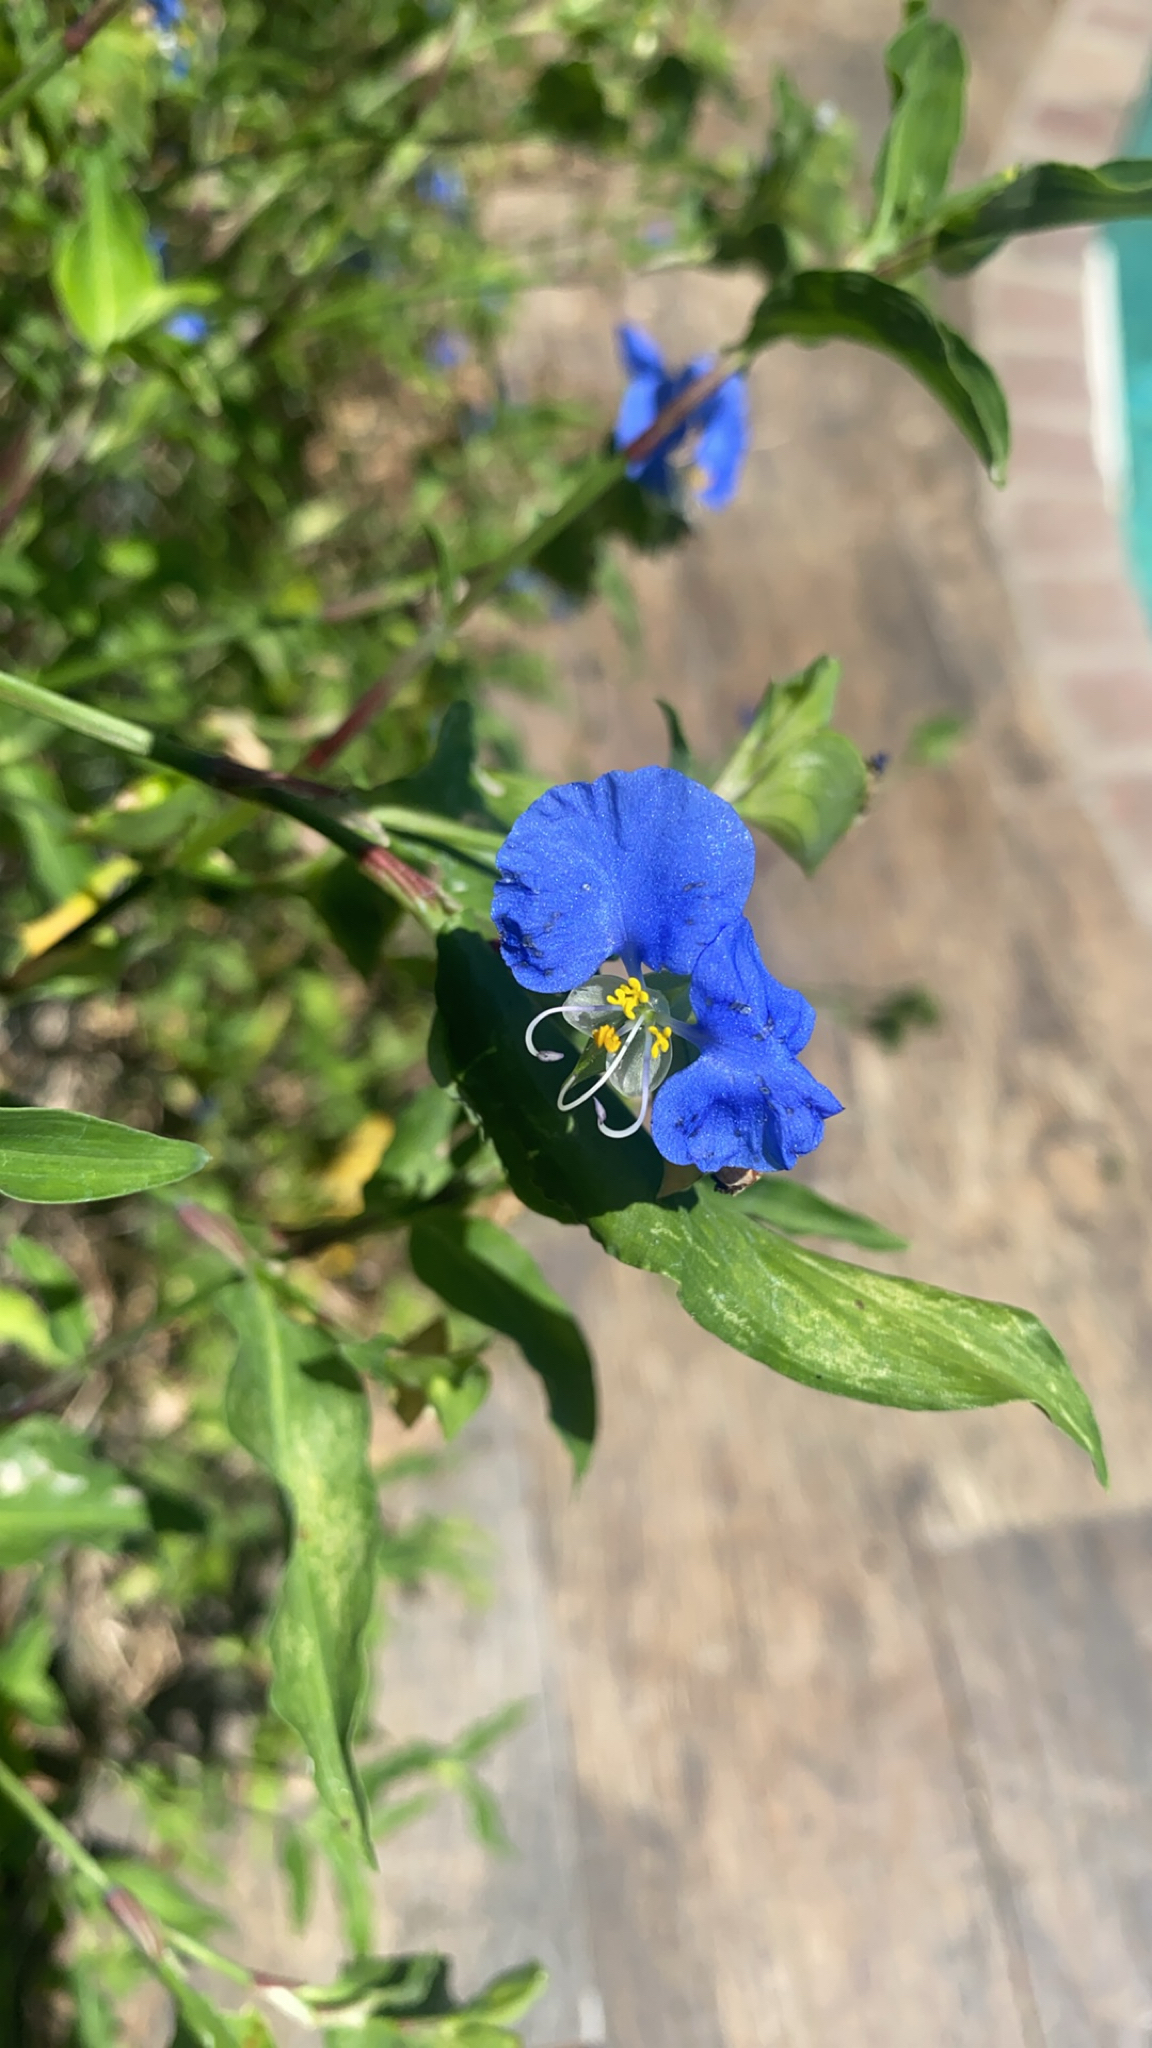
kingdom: Plantae
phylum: Tracheophyta
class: Liliopsida
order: Commelinales
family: Commelinaceae
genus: Commelina
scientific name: Commelina erecta
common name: Blousel blommetjie
